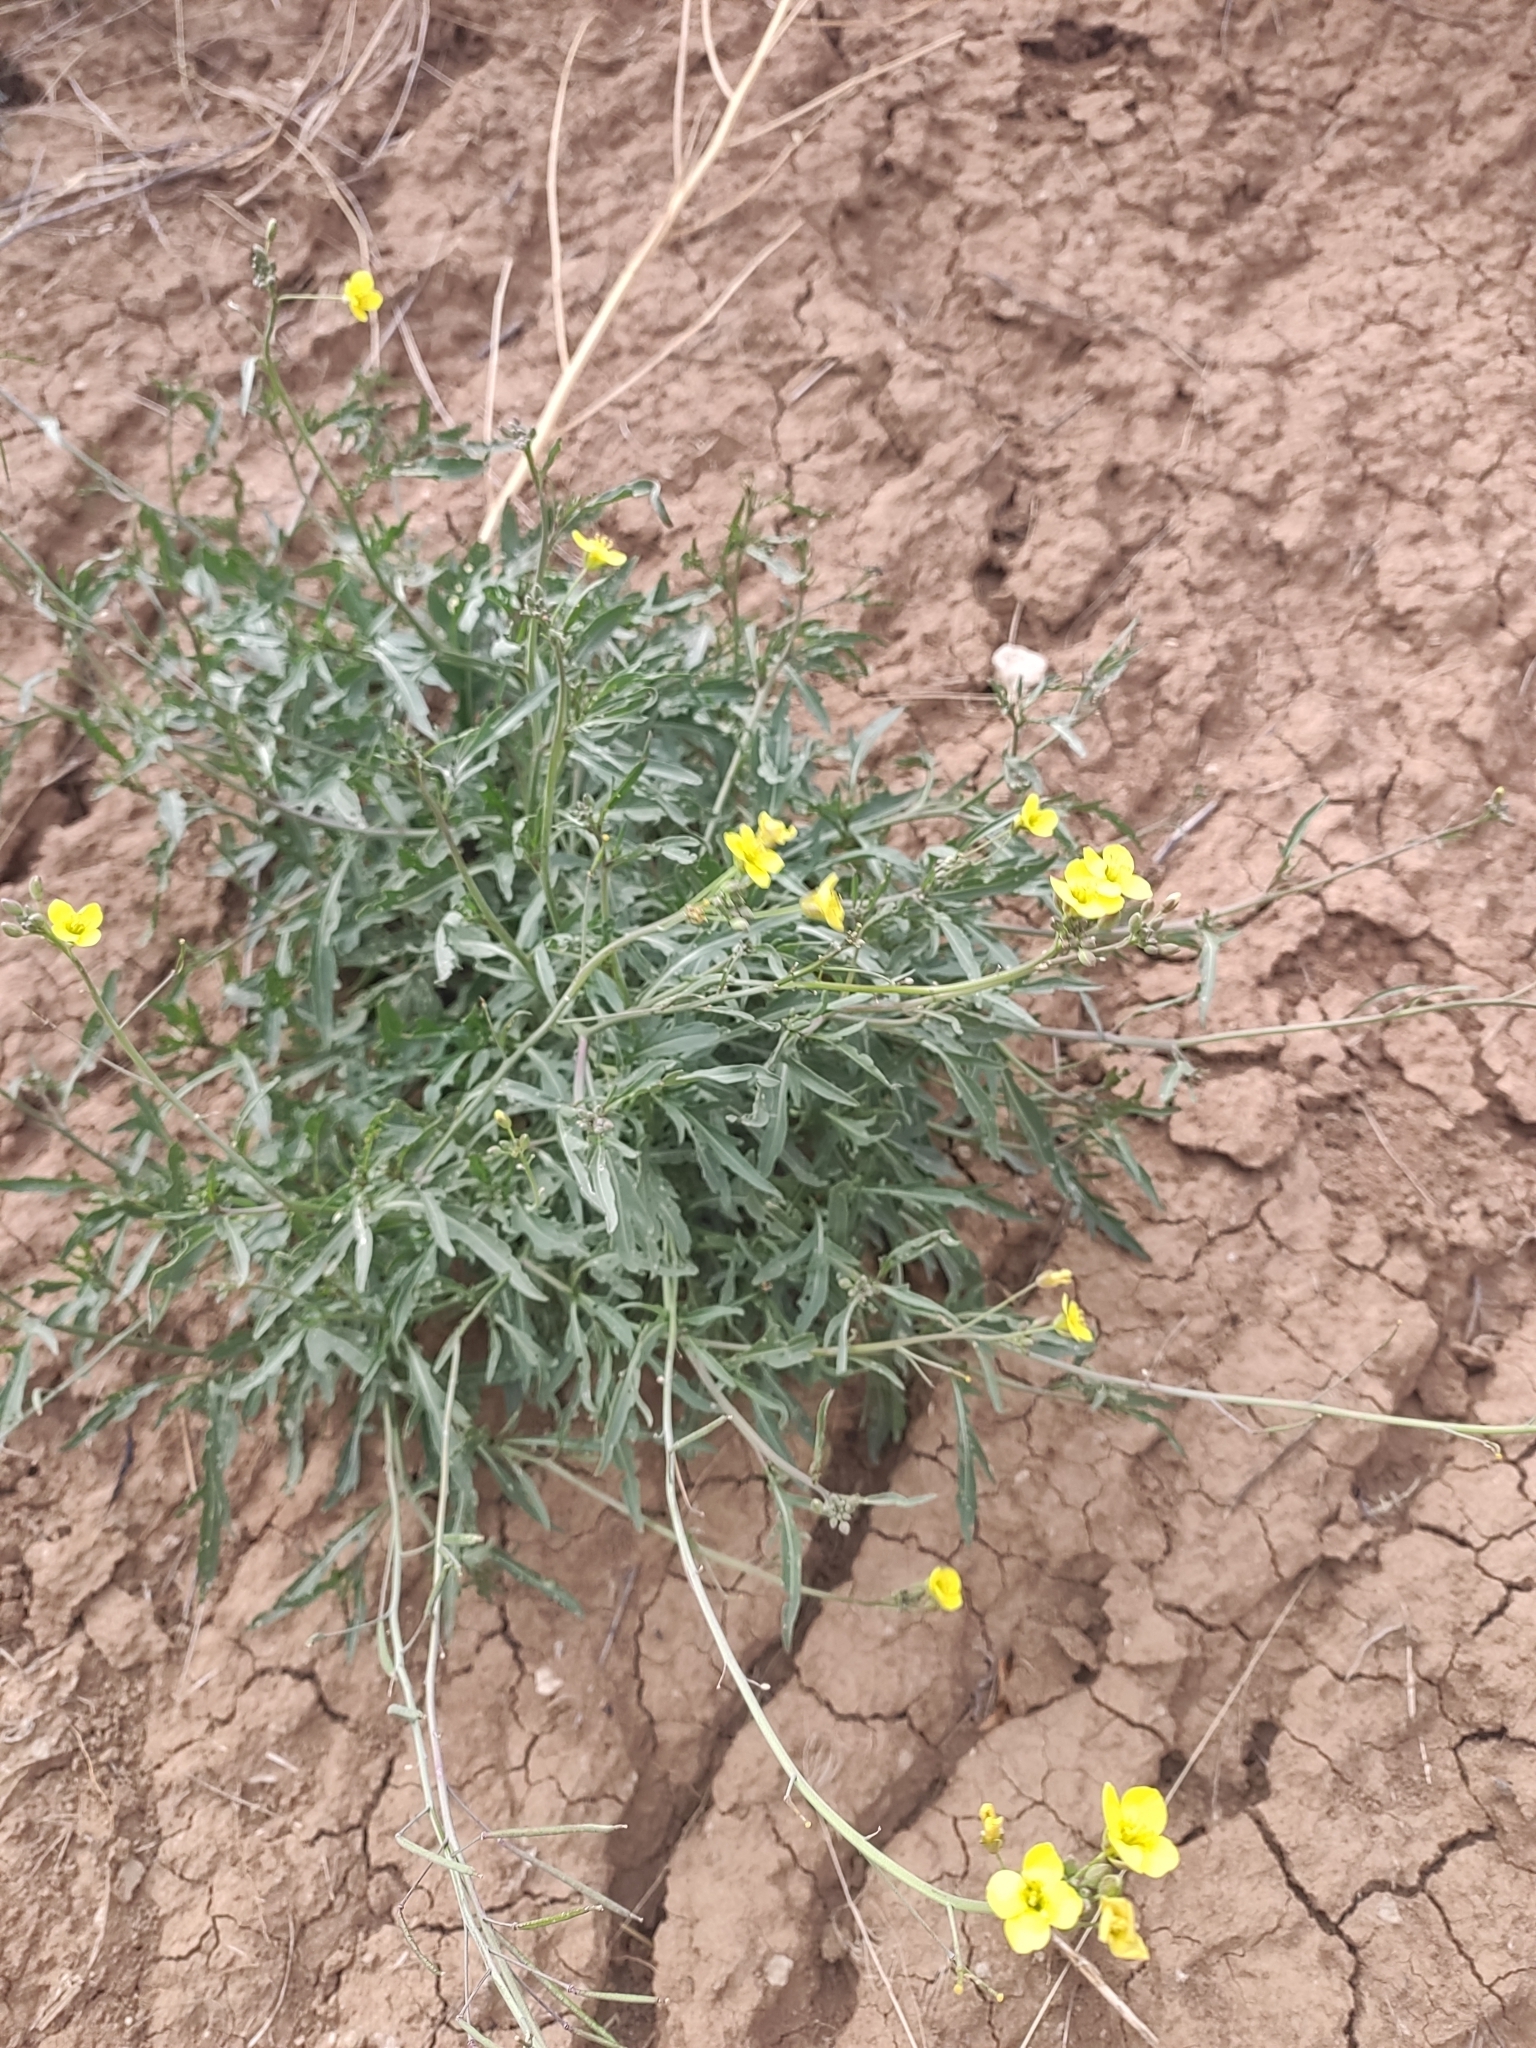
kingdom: Plantae
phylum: Tracheophyta
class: Magnoliopsida
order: Brassicales
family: Brassicaceae
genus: Diplotaxis
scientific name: Diplotaxis tenuifolia
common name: Perennial wall-rocket
